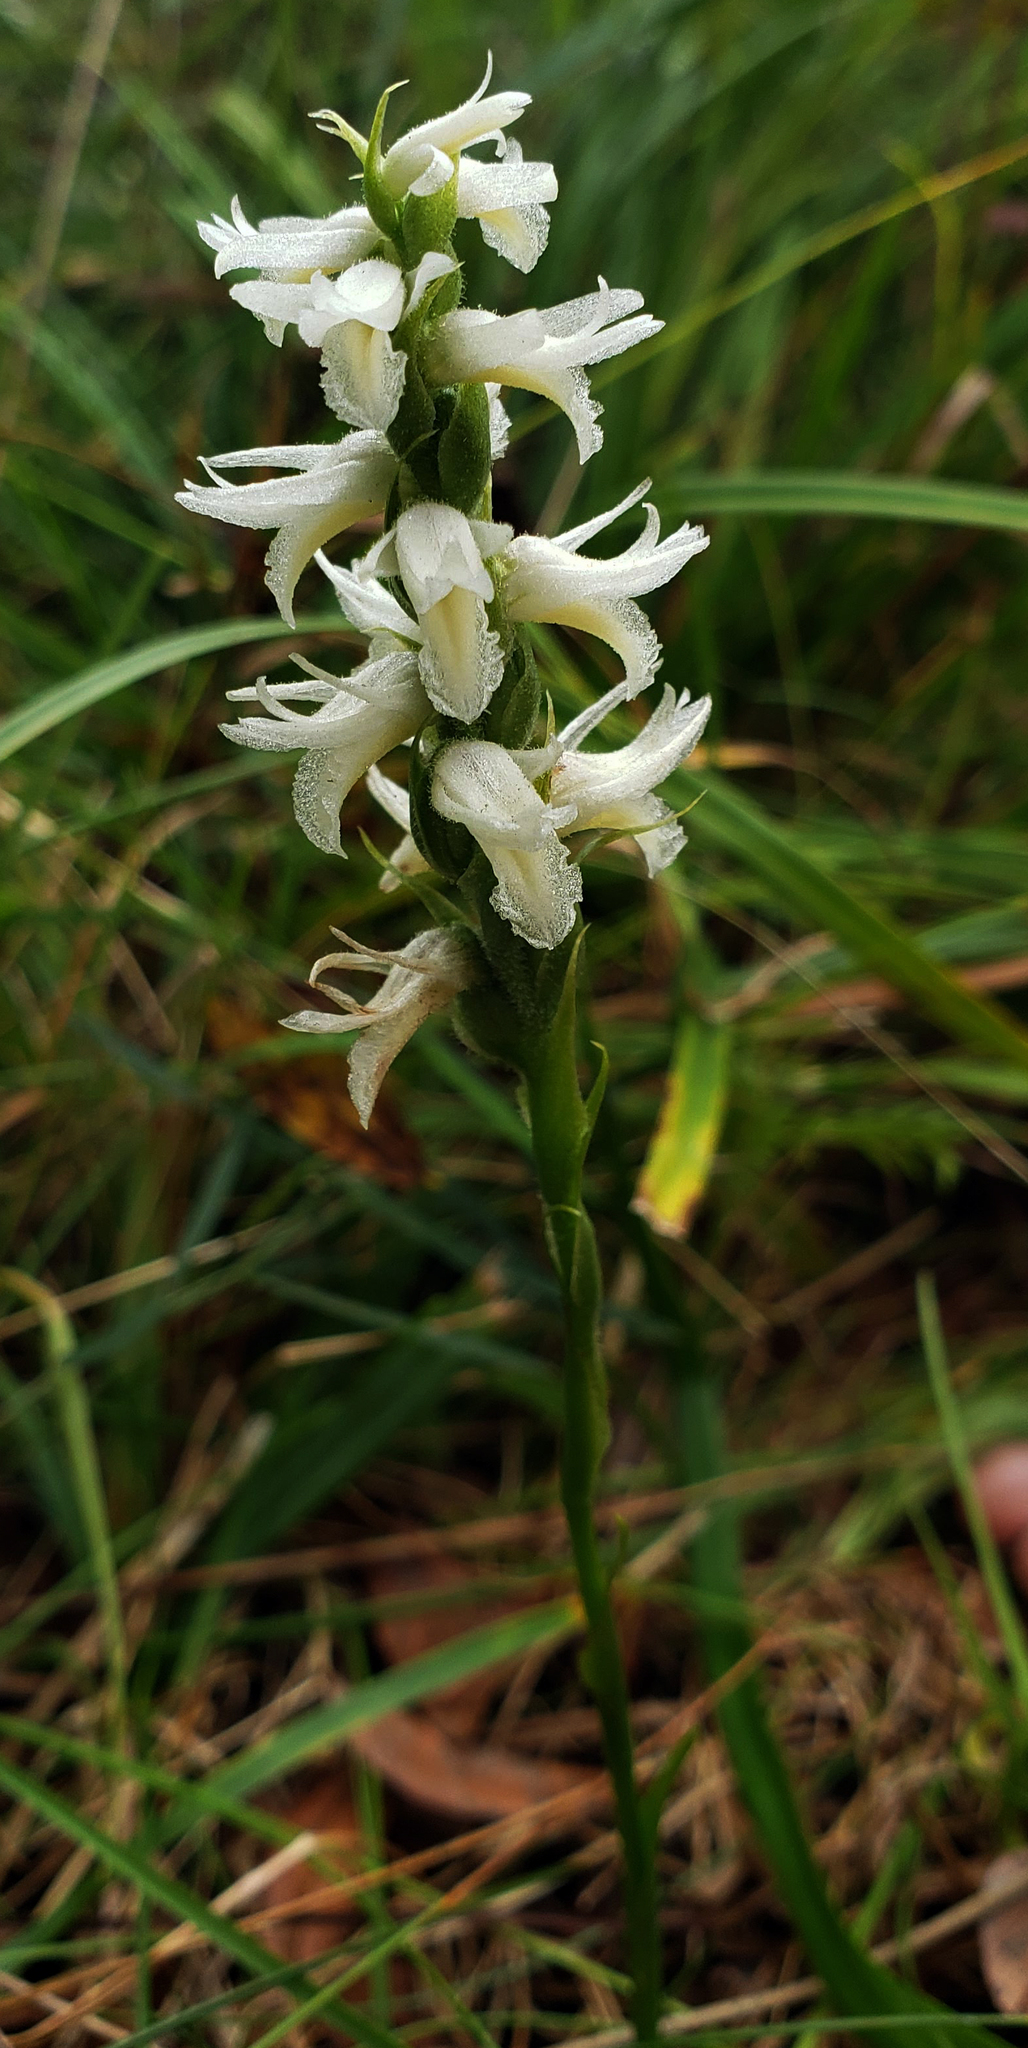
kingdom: Plantae
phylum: Tracheophyta
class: Liliopsida
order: Asparagales
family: Orchidaceae
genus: Spiranthes
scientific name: Spiranthes magnicamporum
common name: Great plains ladies'-tresses
